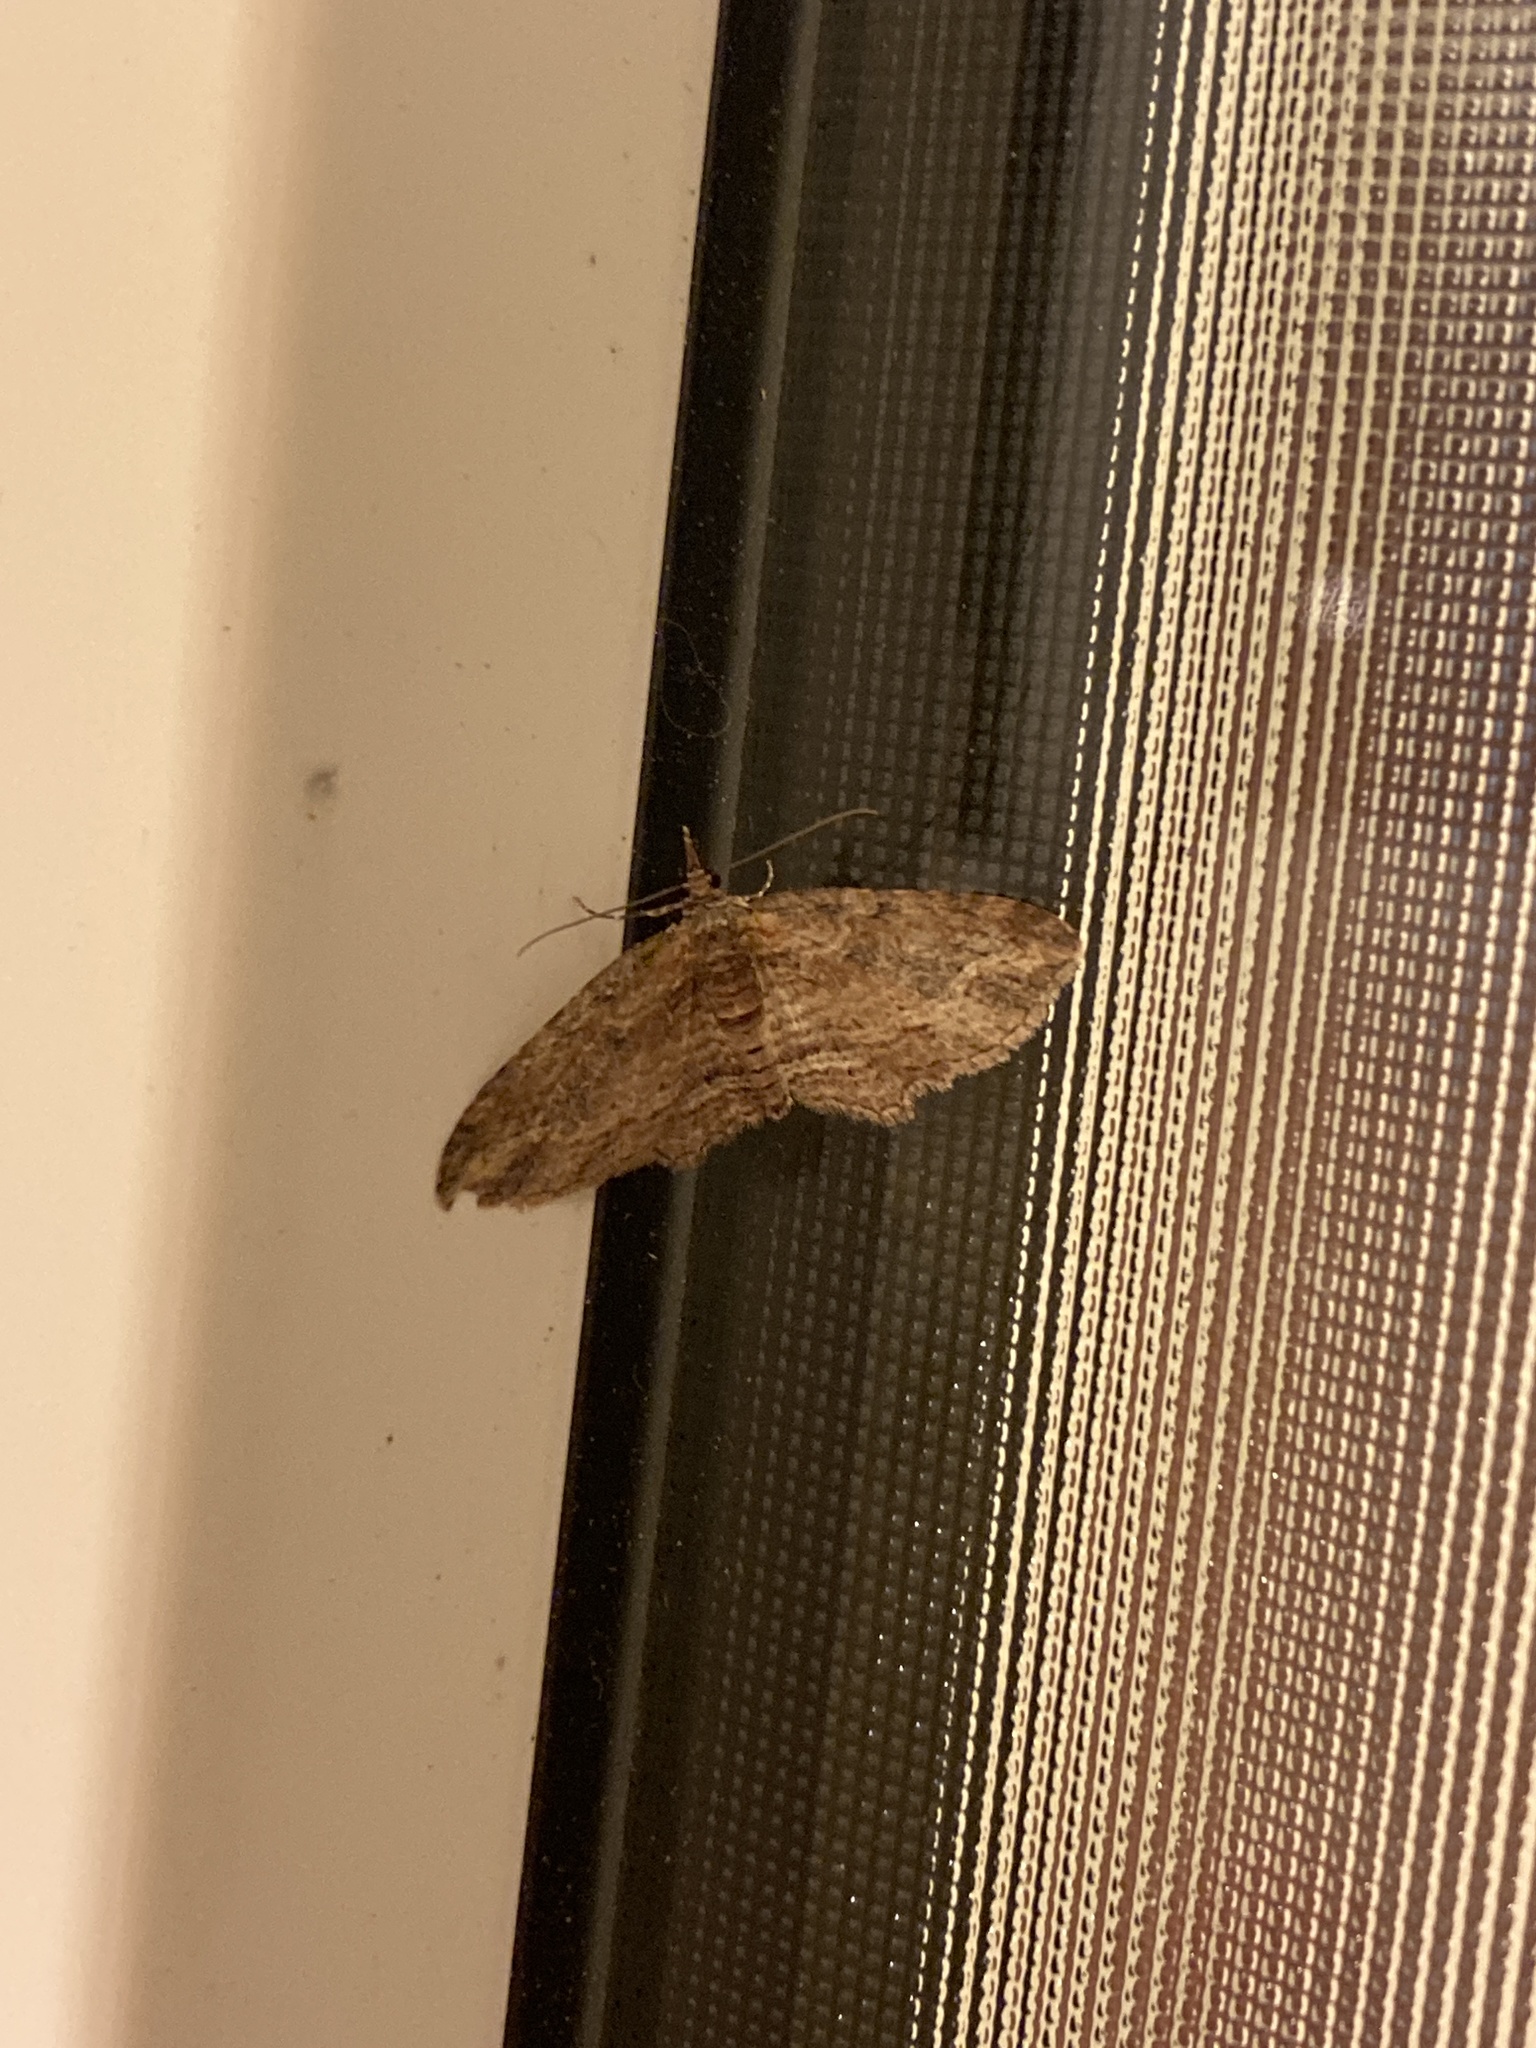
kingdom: Animalia
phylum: Arthropoda
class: Insecta
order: Lepidoptera
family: Geometridae
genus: Chloroclystis
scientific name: Chloroclystis filata
